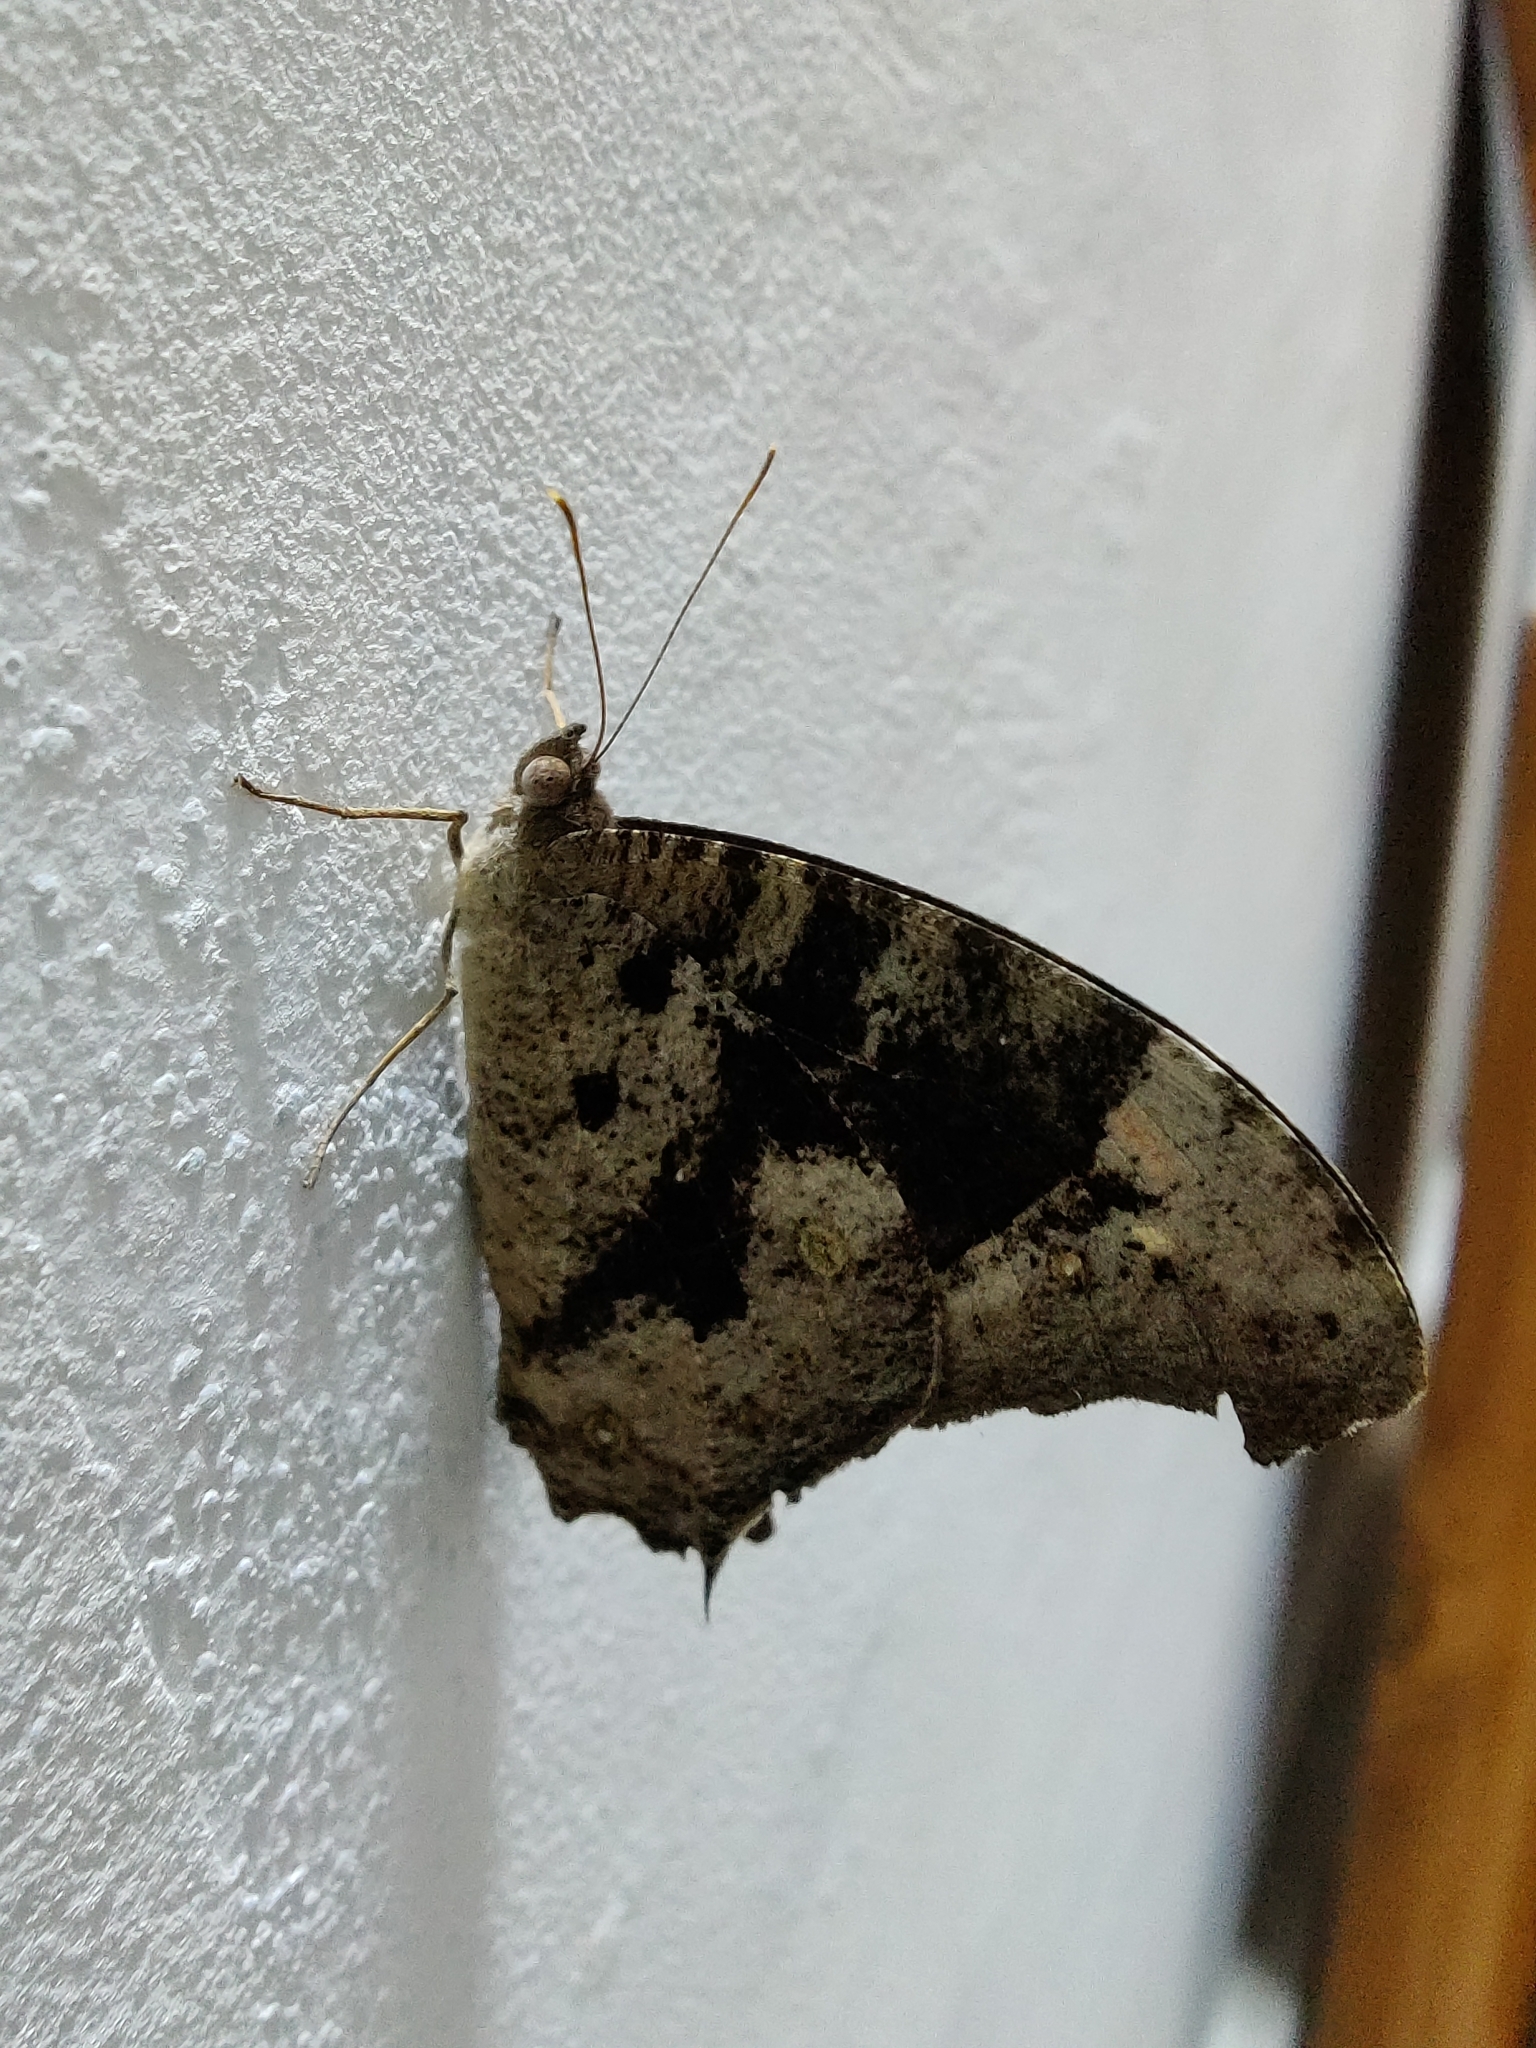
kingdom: Animalia
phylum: Arthropoda
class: Insecta
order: Lepidoptera
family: Nymphalidae
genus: Melanitis
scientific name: Melanitis leda
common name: Twilight brown
